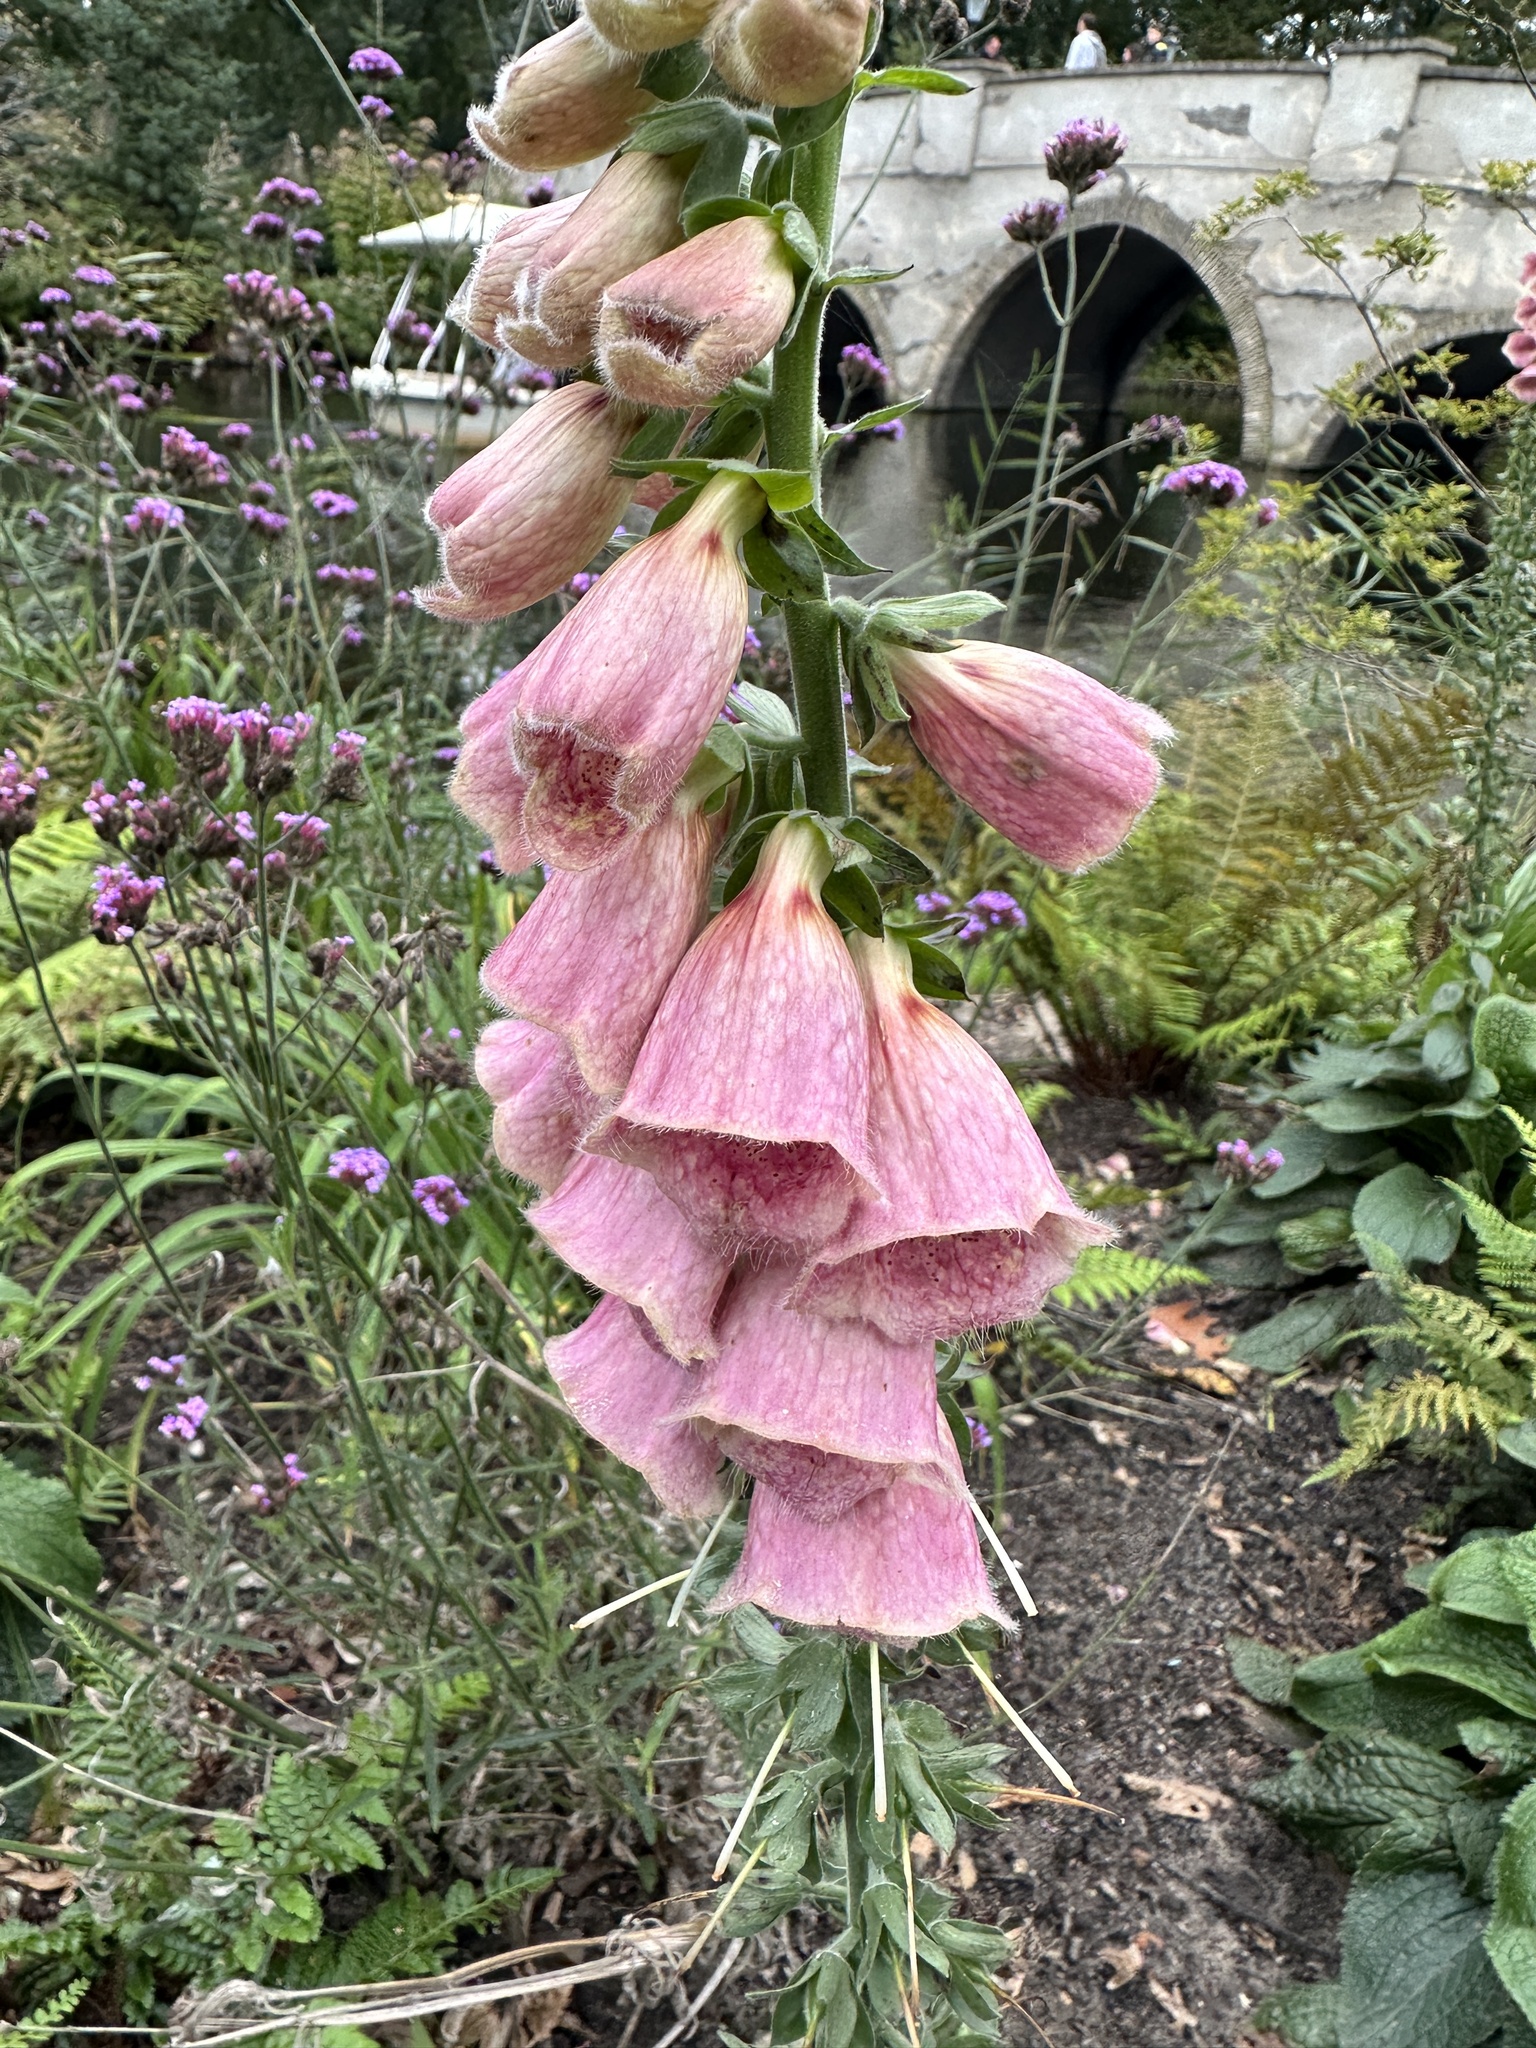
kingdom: Plantae
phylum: Tracheophyta
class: Magnoliopsida
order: Lamiales
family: Plantaginaceae
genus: Digitalis
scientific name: Digitalis purpurea
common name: Foxglove
